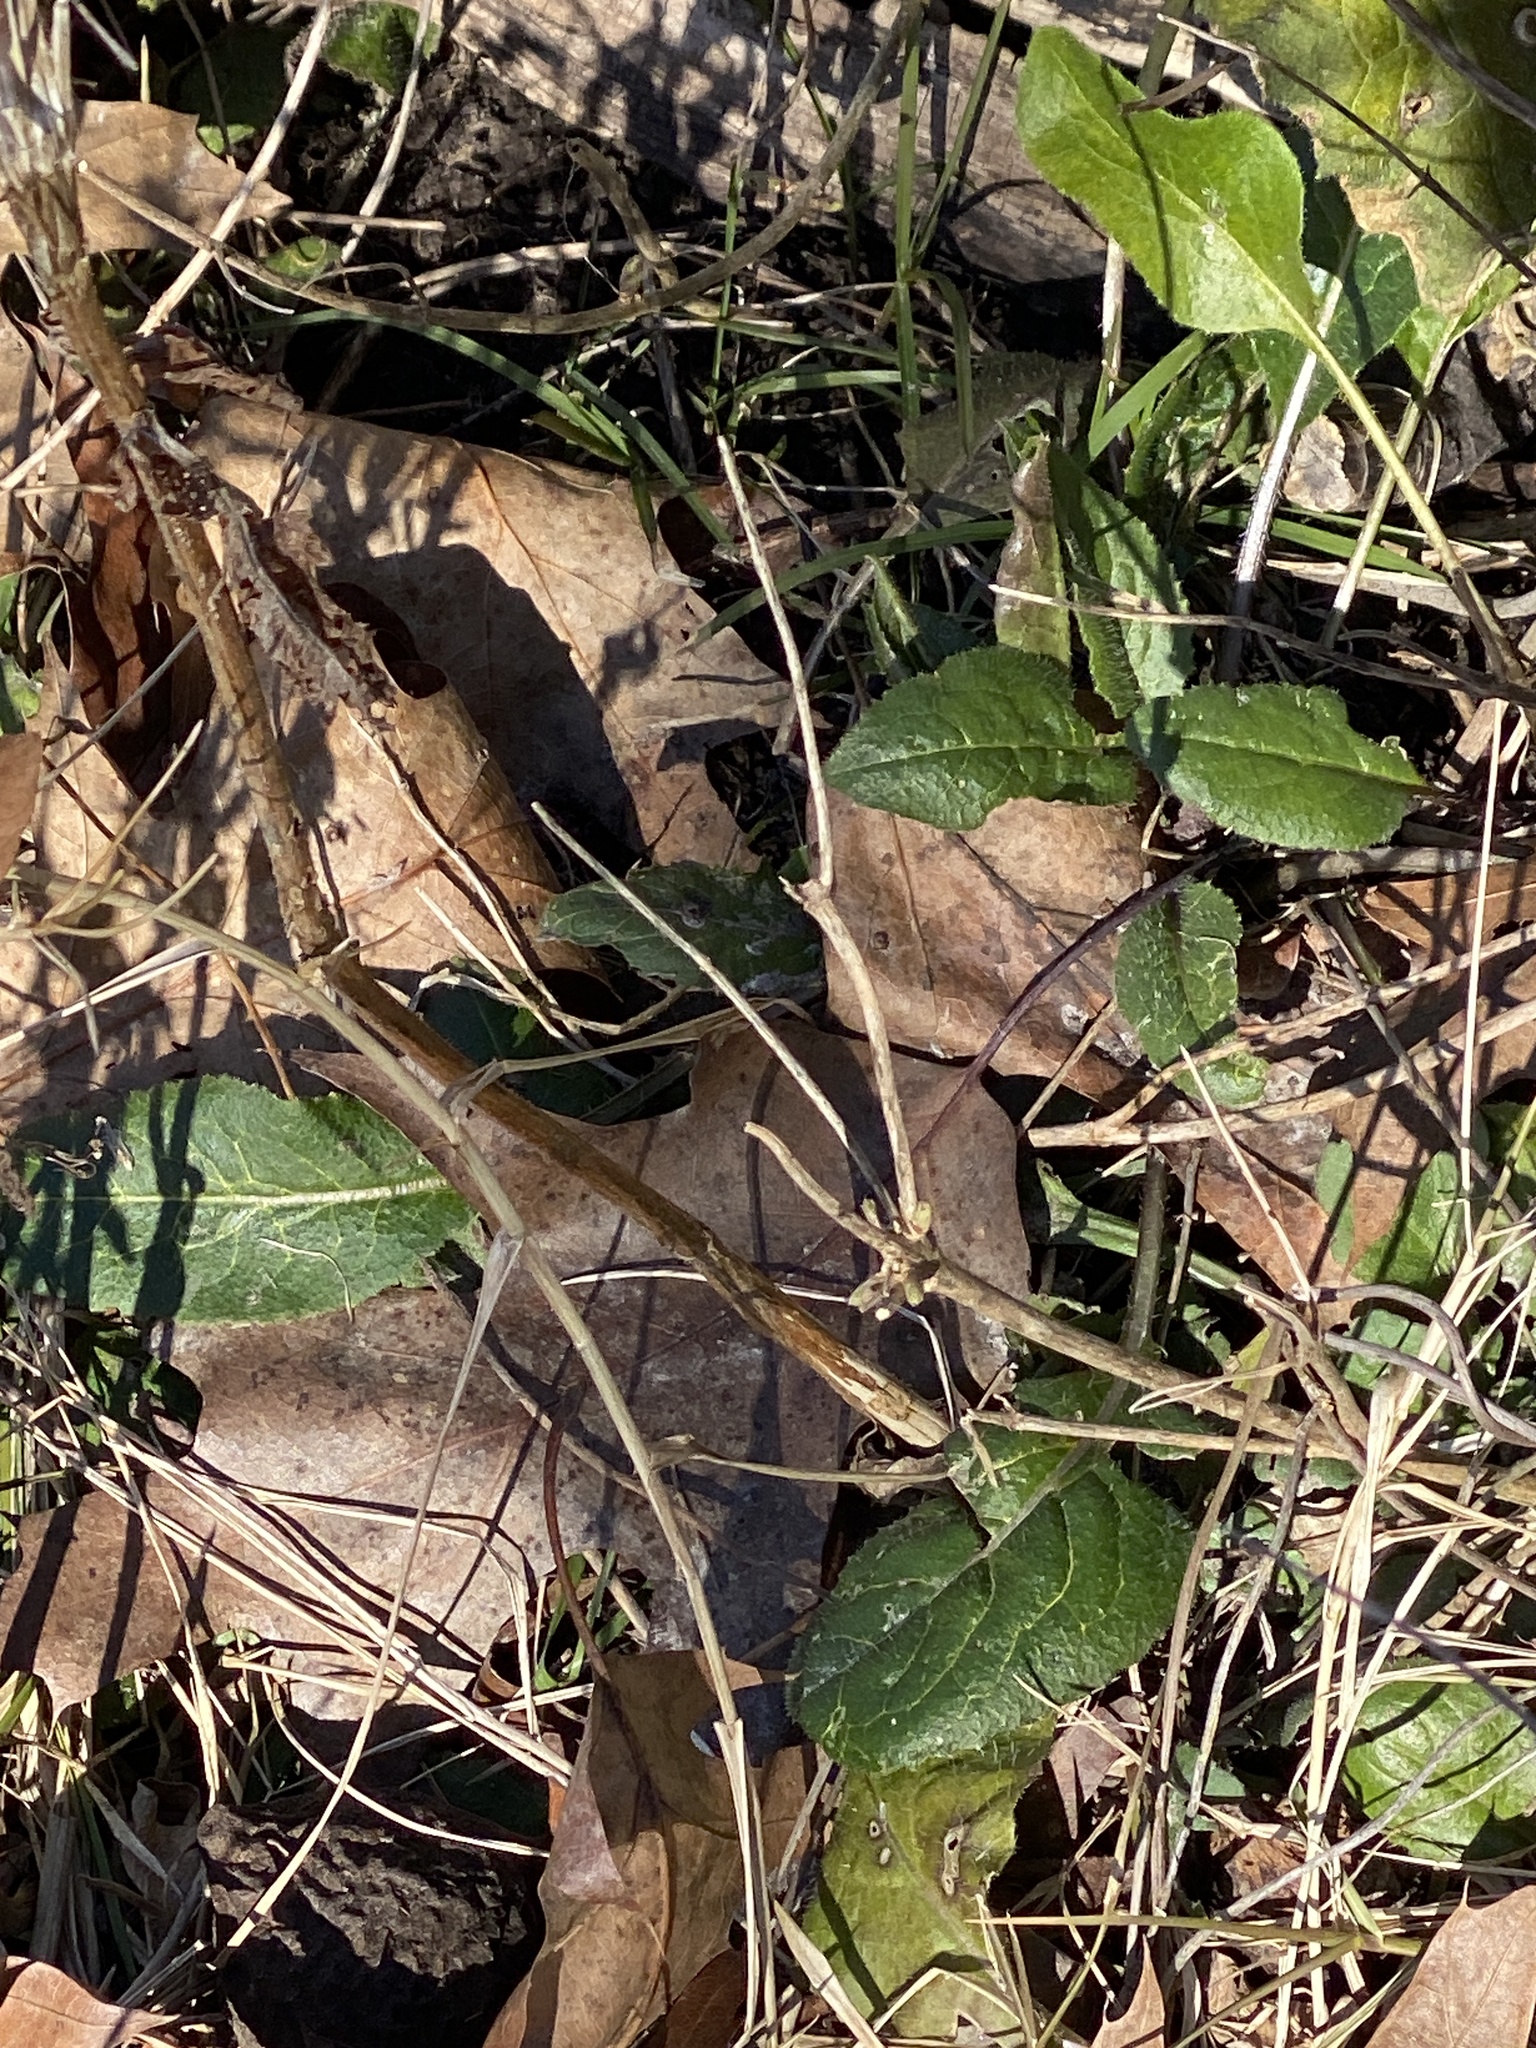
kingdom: Plantae
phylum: Tracheophyta
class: Magnoliopsida
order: Brassicales
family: Brassicaceae
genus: Hesperis
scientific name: Hesperis matronalis
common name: Dame's-violet
